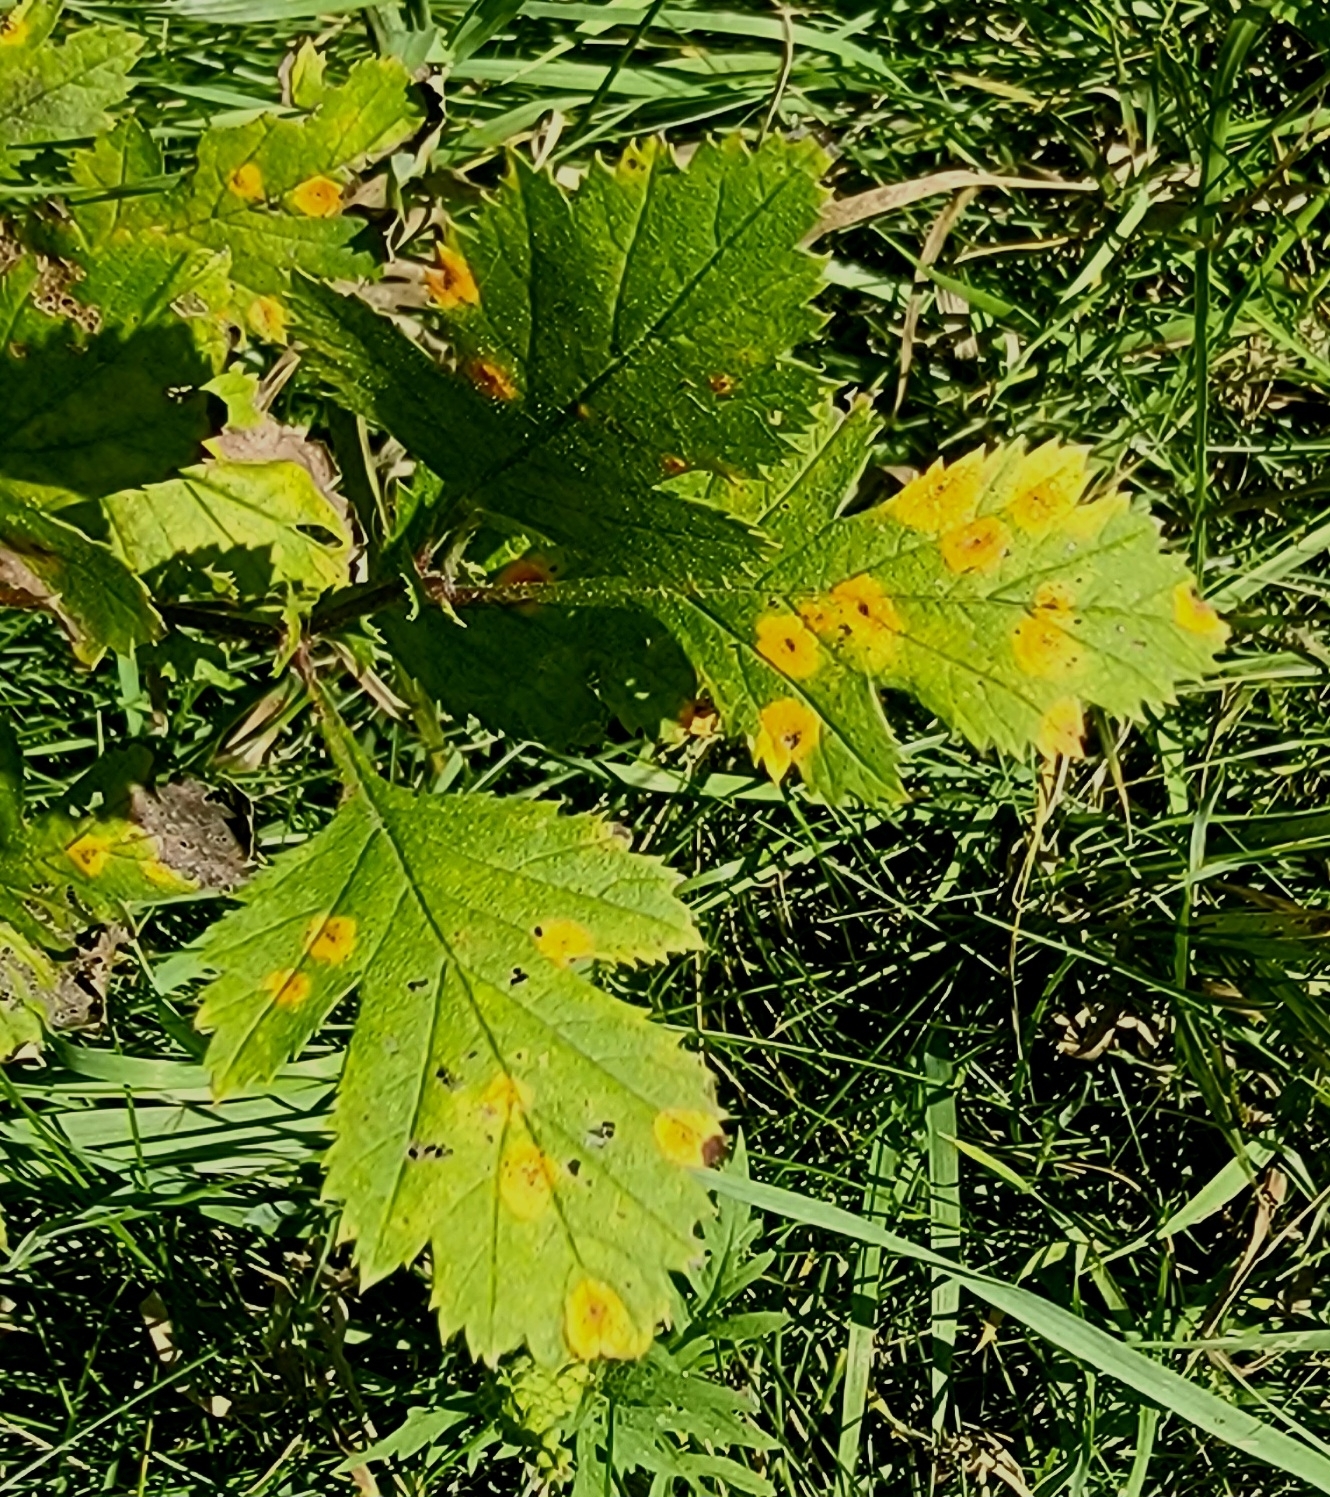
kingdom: Fungi
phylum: Basidiomycota
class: Pucciniomycetes
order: Pucciniales
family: Gymnosporangiaceae
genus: Gymnosporangium
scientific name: Gymnosporangium globosum
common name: Juniper-hawthorn rust
